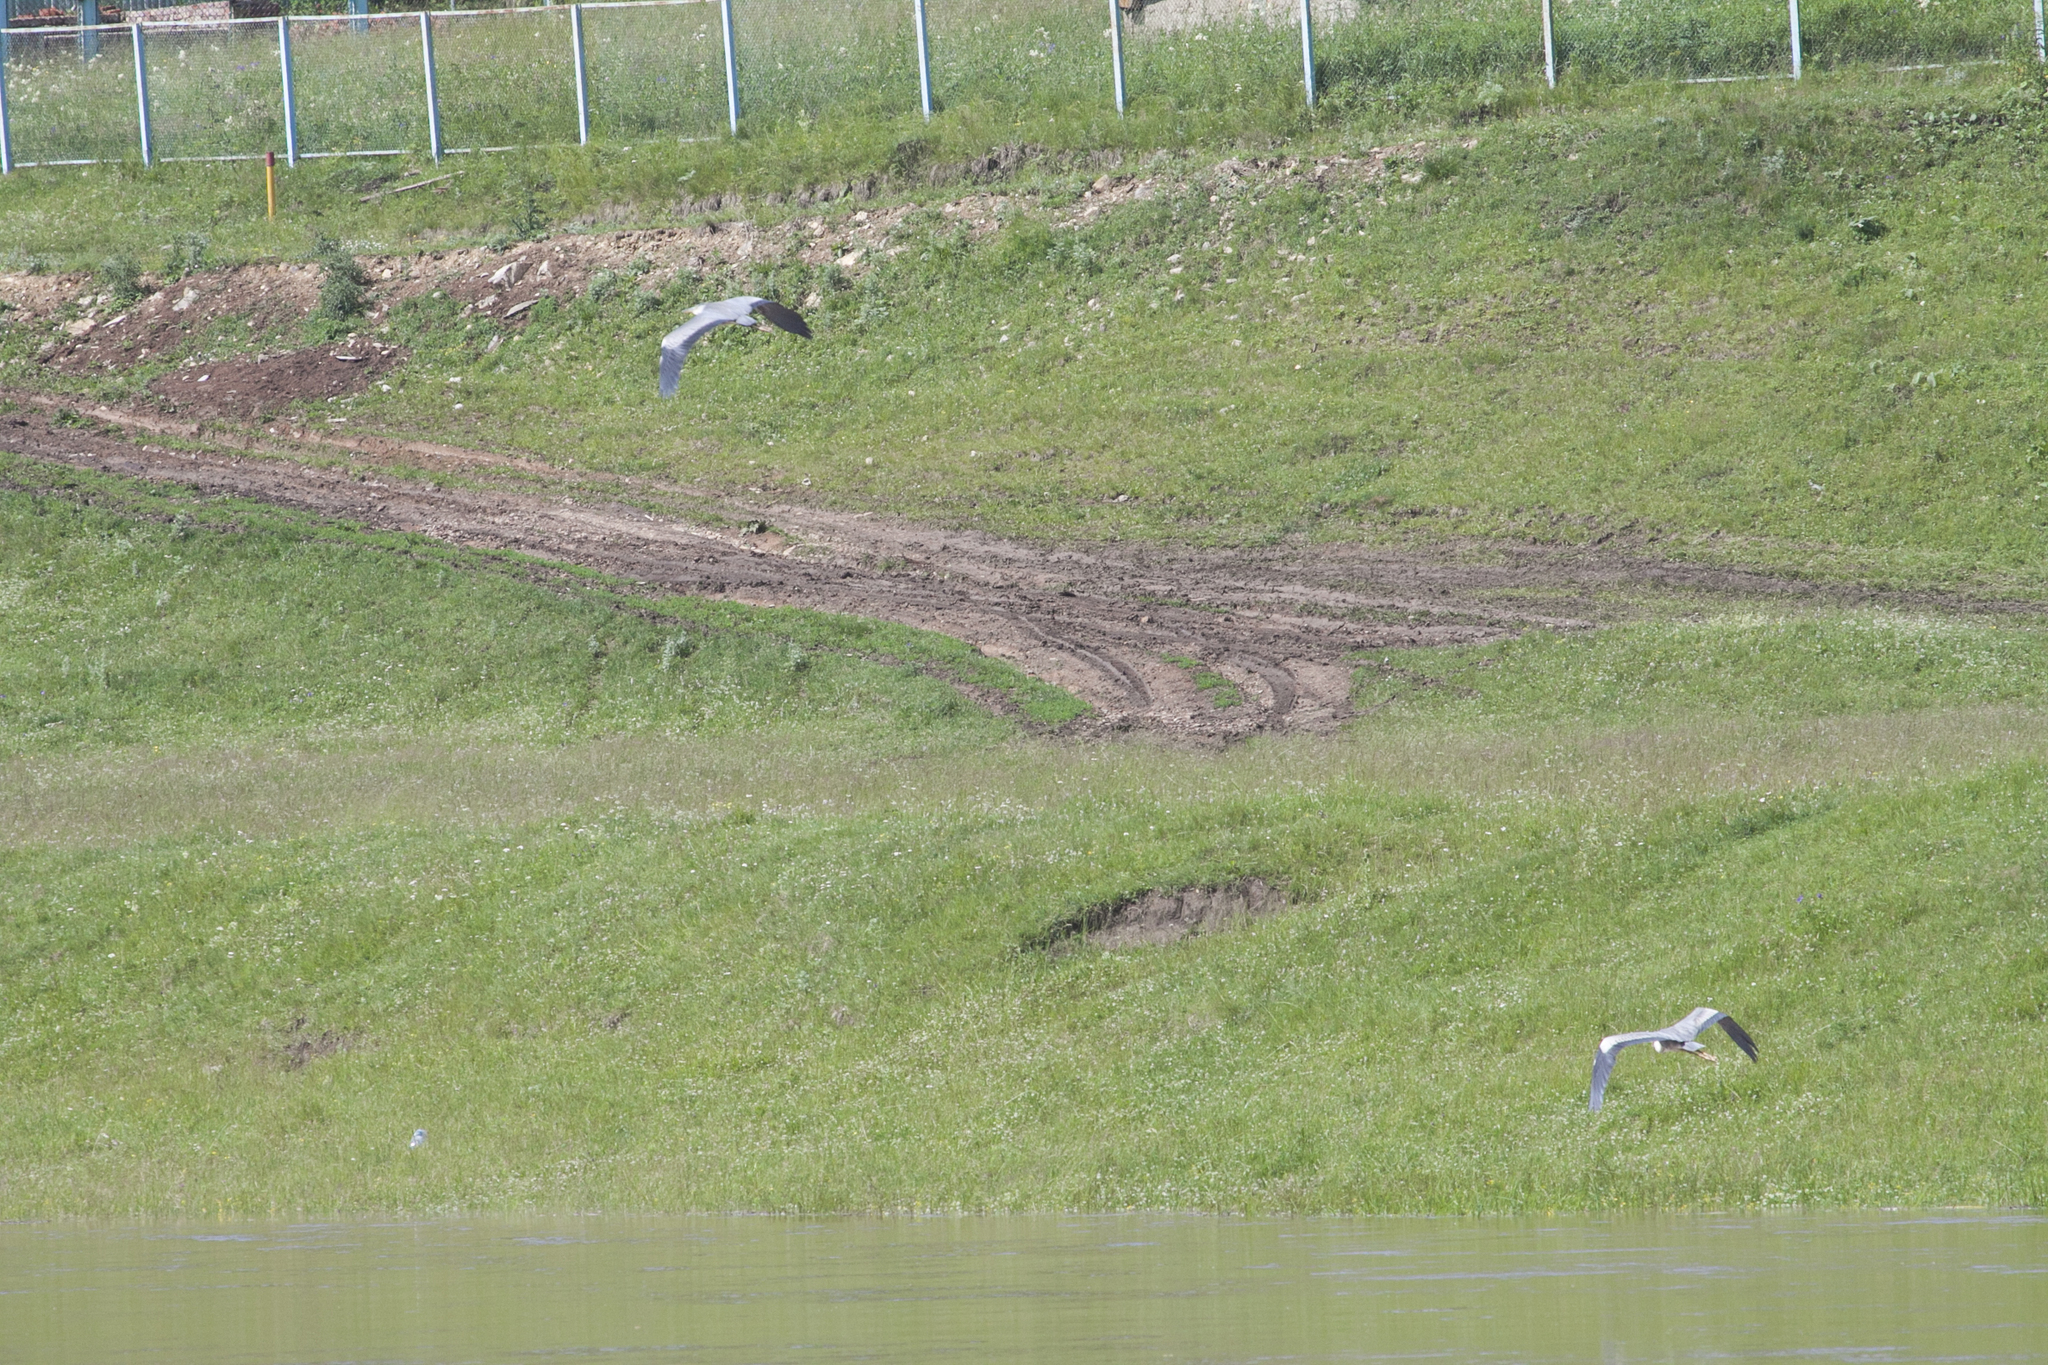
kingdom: Animalia
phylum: Chordata
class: Aves
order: Pelecaniformes
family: Ardeidae
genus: Ardea
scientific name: Ardea cinerea
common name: Grey heron
